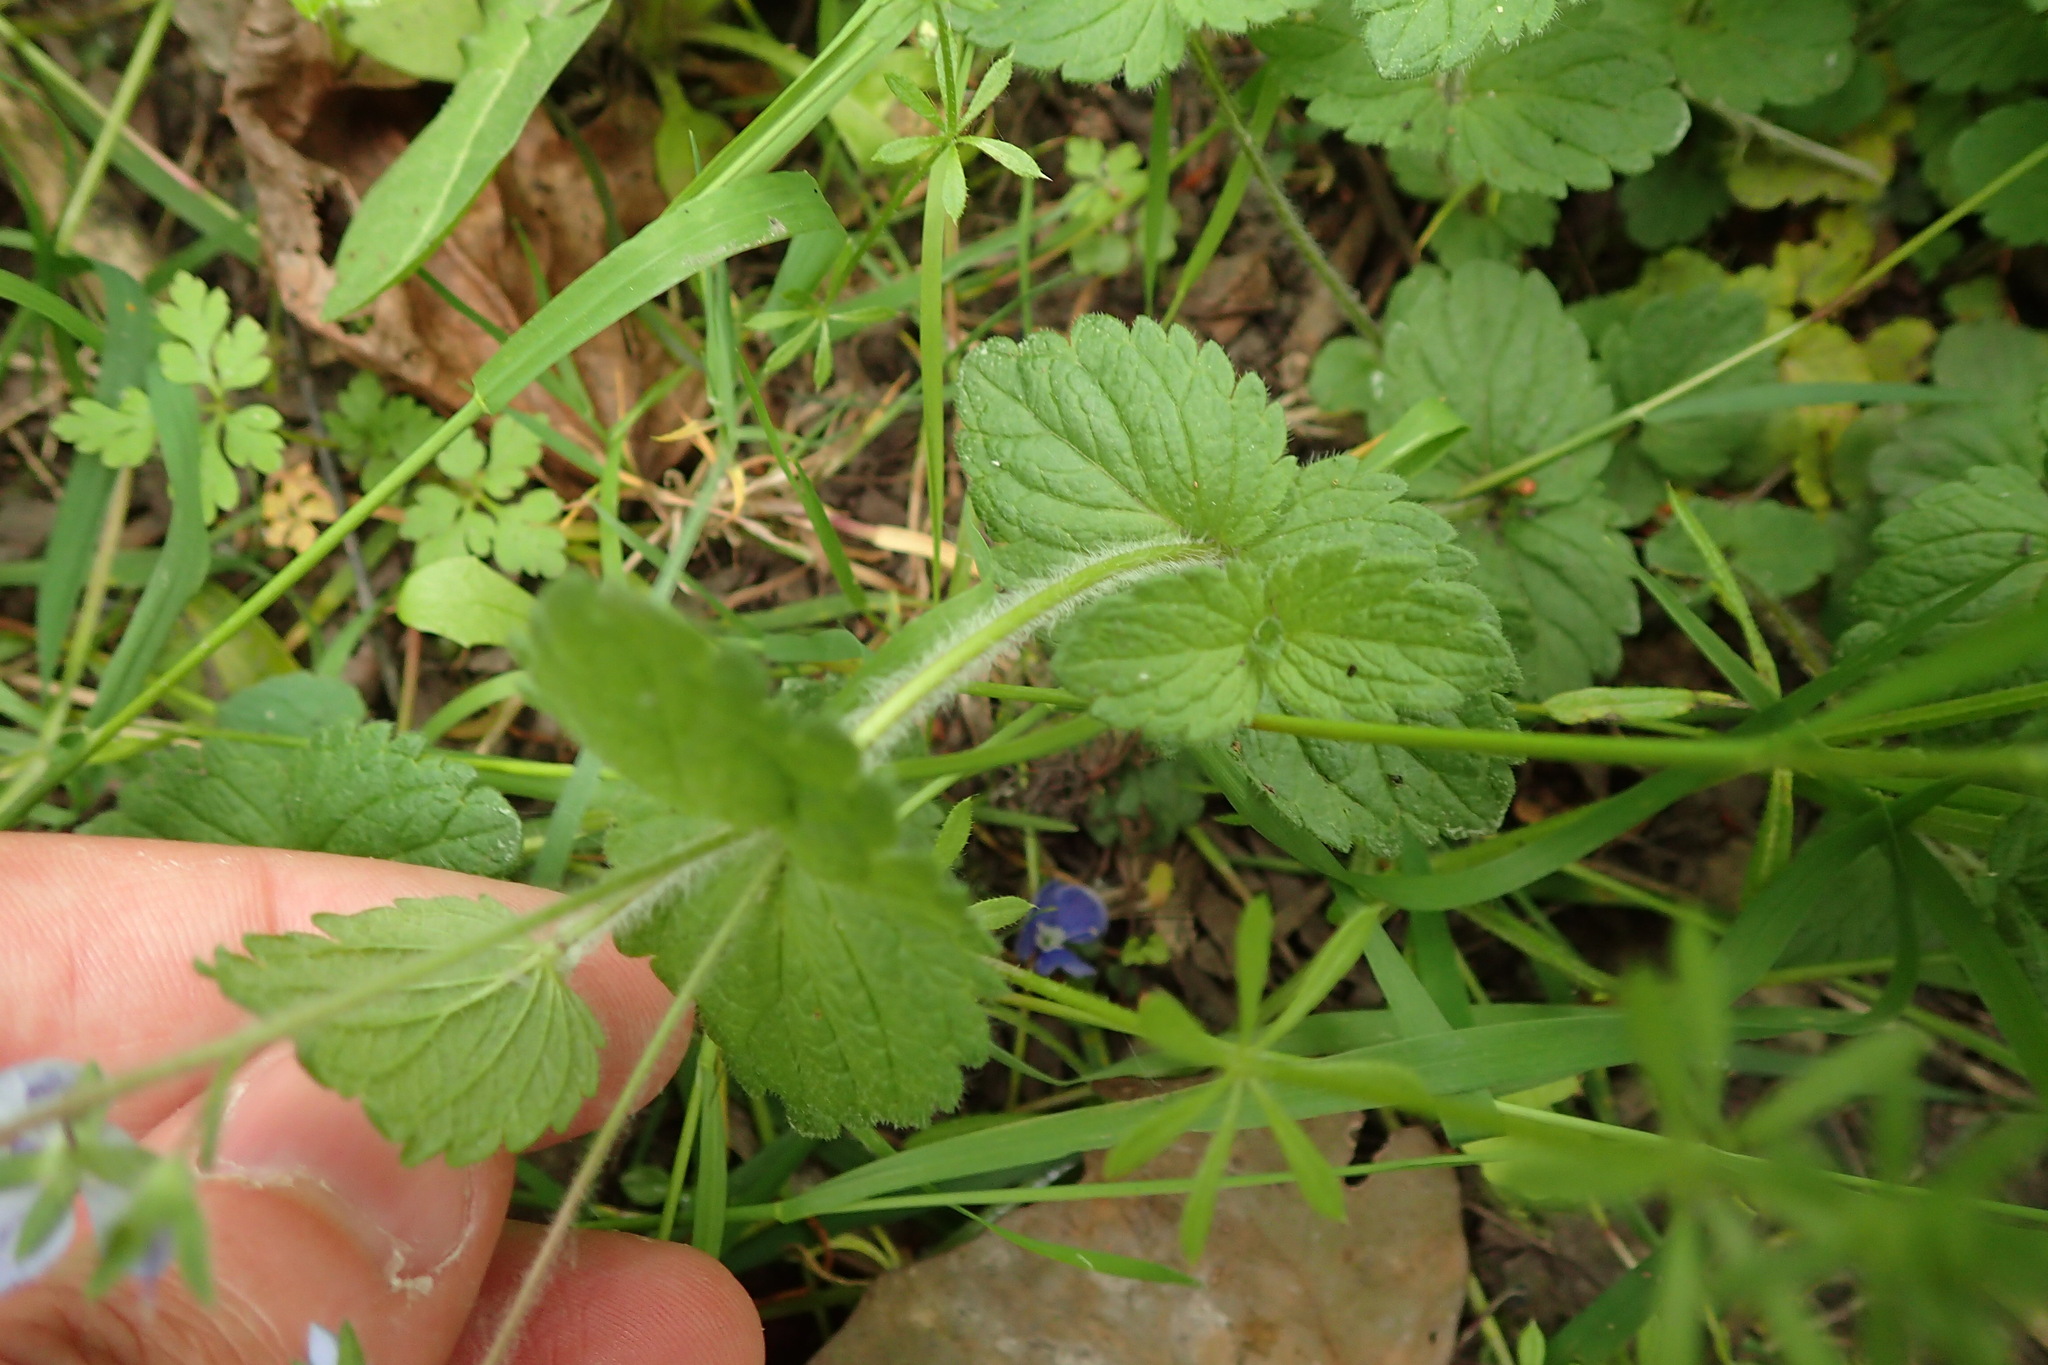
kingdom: Plantae
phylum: Tracheophyta
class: Magnoliopsida
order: Lamiales
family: Plantaginaceae
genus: Veronica
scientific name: Veronica chamaedrys
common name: Germander speedwell
